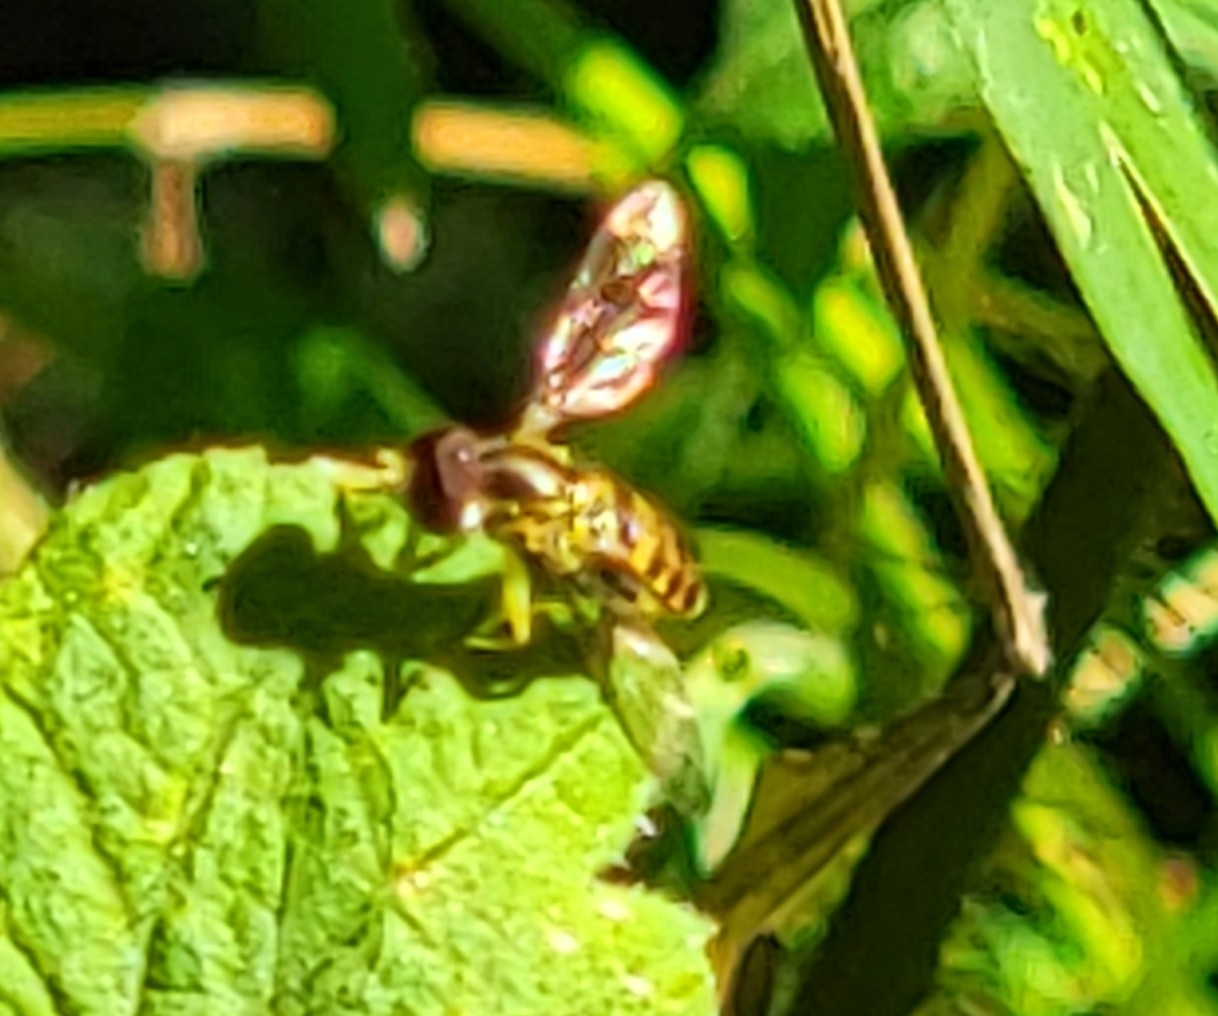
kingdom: Animalia
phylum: Arthropoda
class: Insecta
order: Diptera
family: Syrphidae
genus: Toxomerus
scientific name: Toxomerus geminatus
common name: Eastern calligrapher
